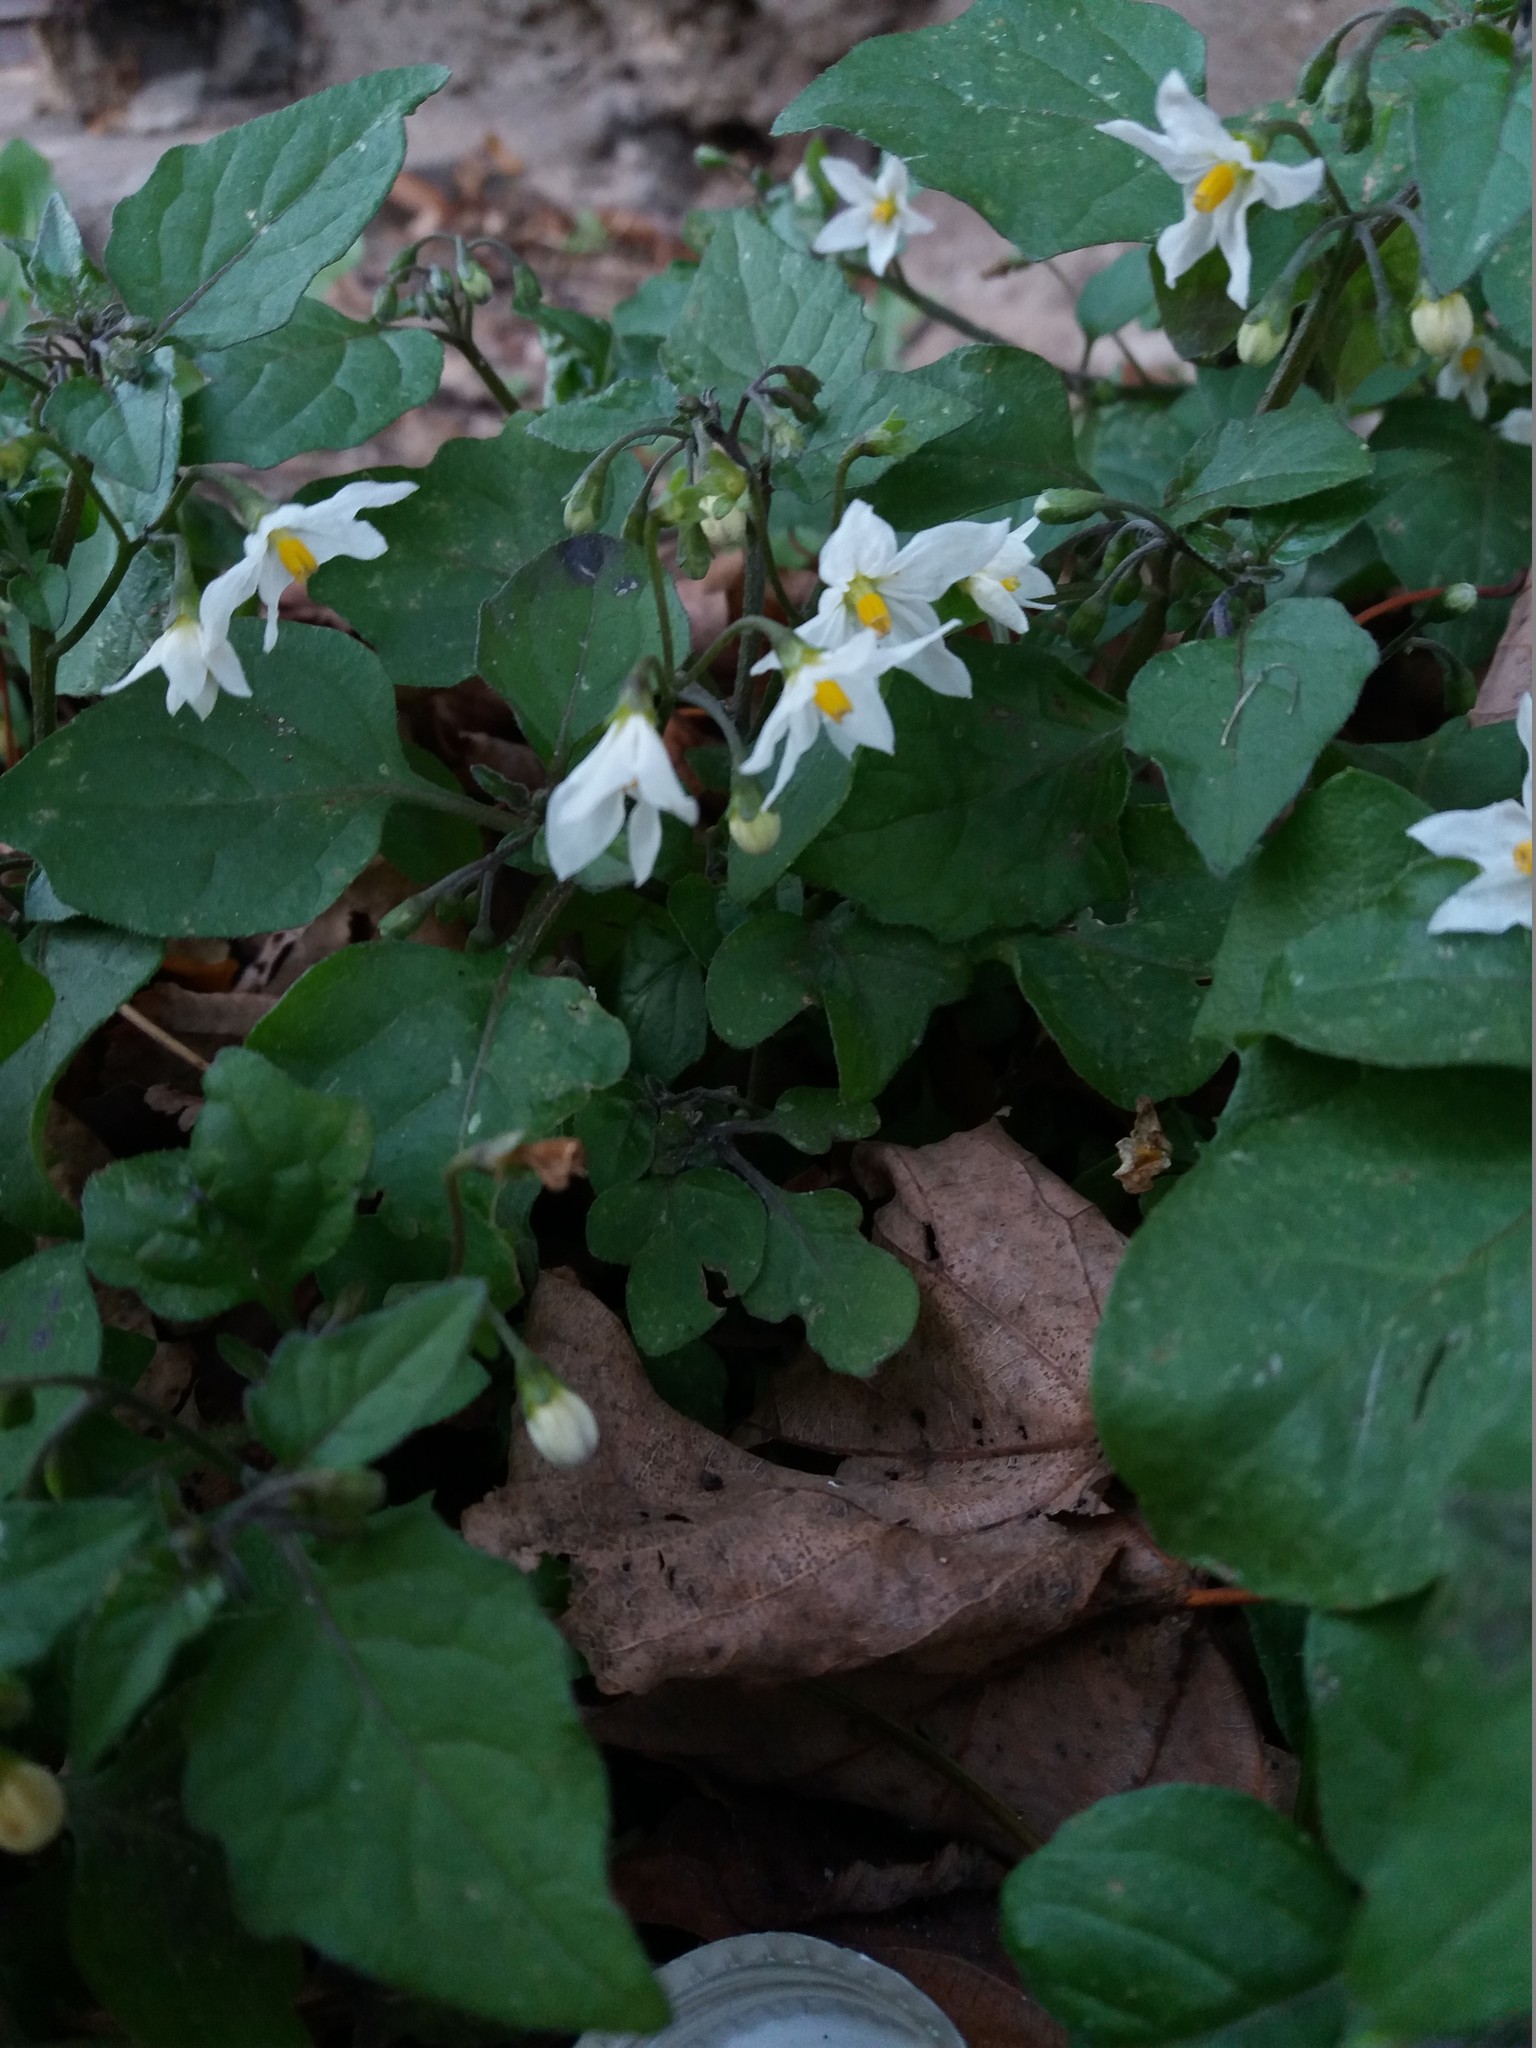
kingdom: Plantae
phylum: Tracheophyta
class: Magnoliopsida
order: Solanales
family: Solanaceae
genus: Solanum
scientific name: Solanum nigrum
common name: Black nightshade
